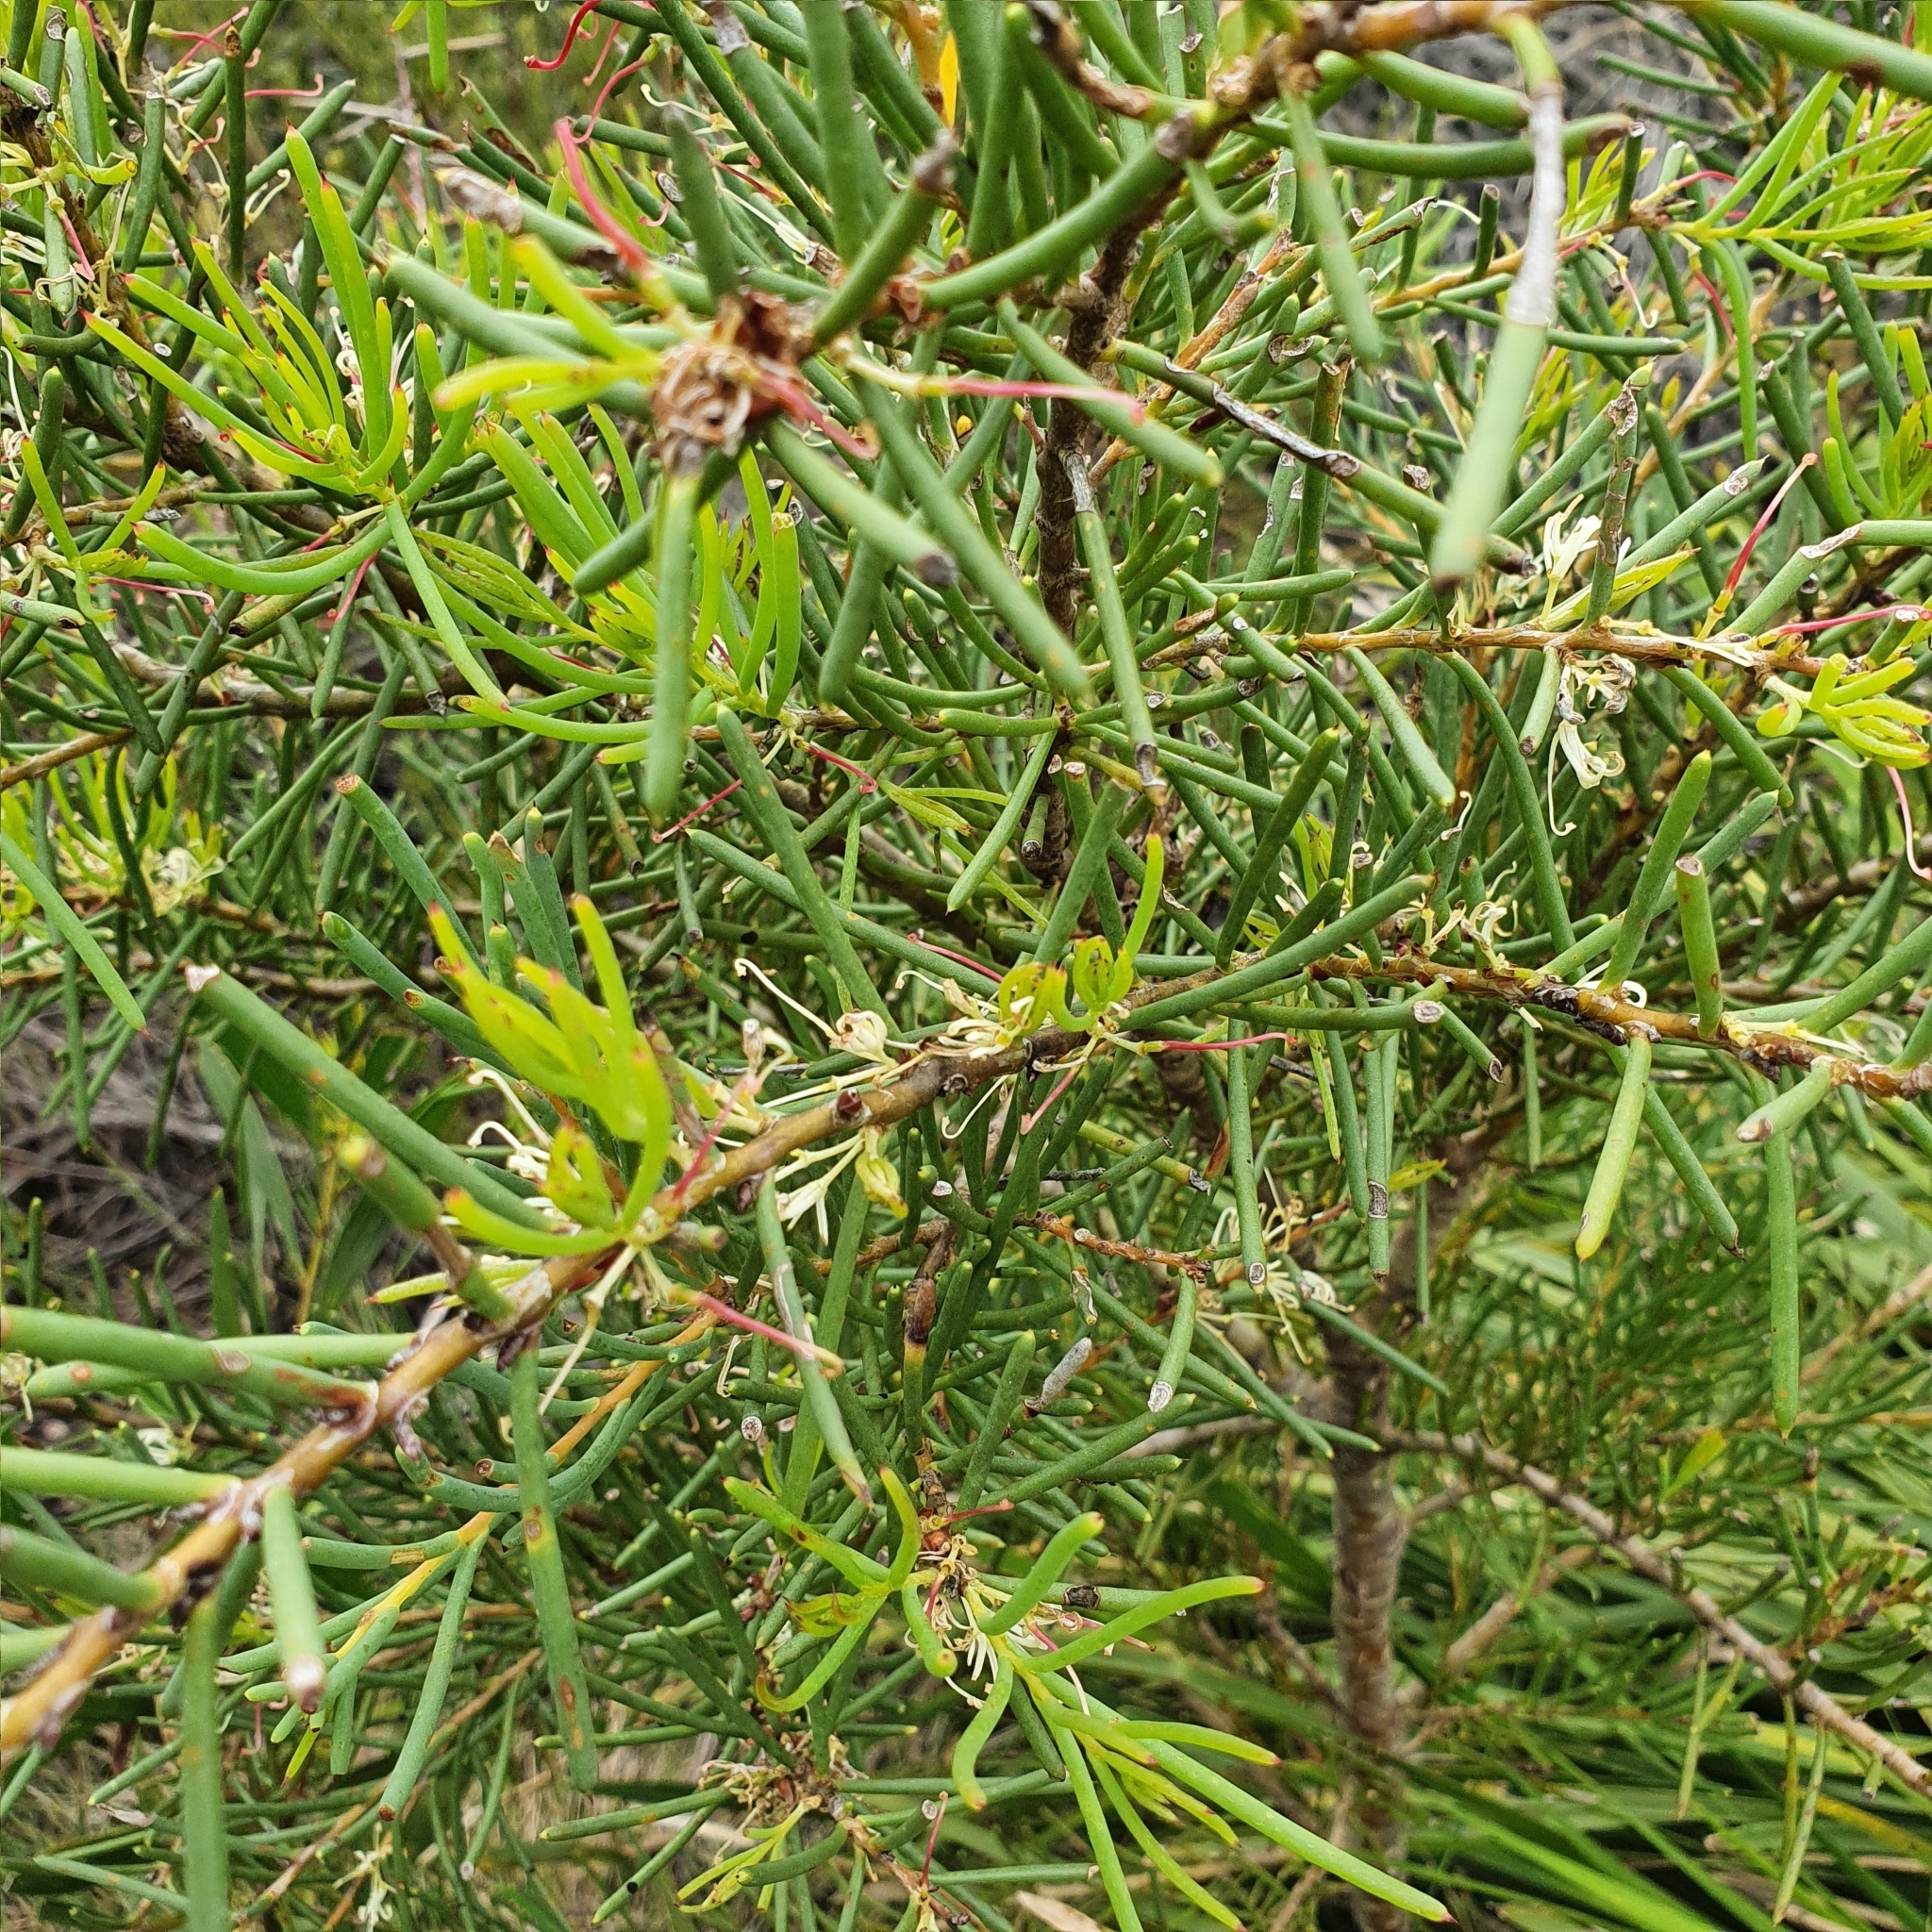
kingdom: Plantae
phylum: Tracheophyta
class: Magnoliopsida
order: Proteales
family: Proteaceae
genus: Hakea
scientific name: Hakea teretifolia
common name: Dagger hakea
